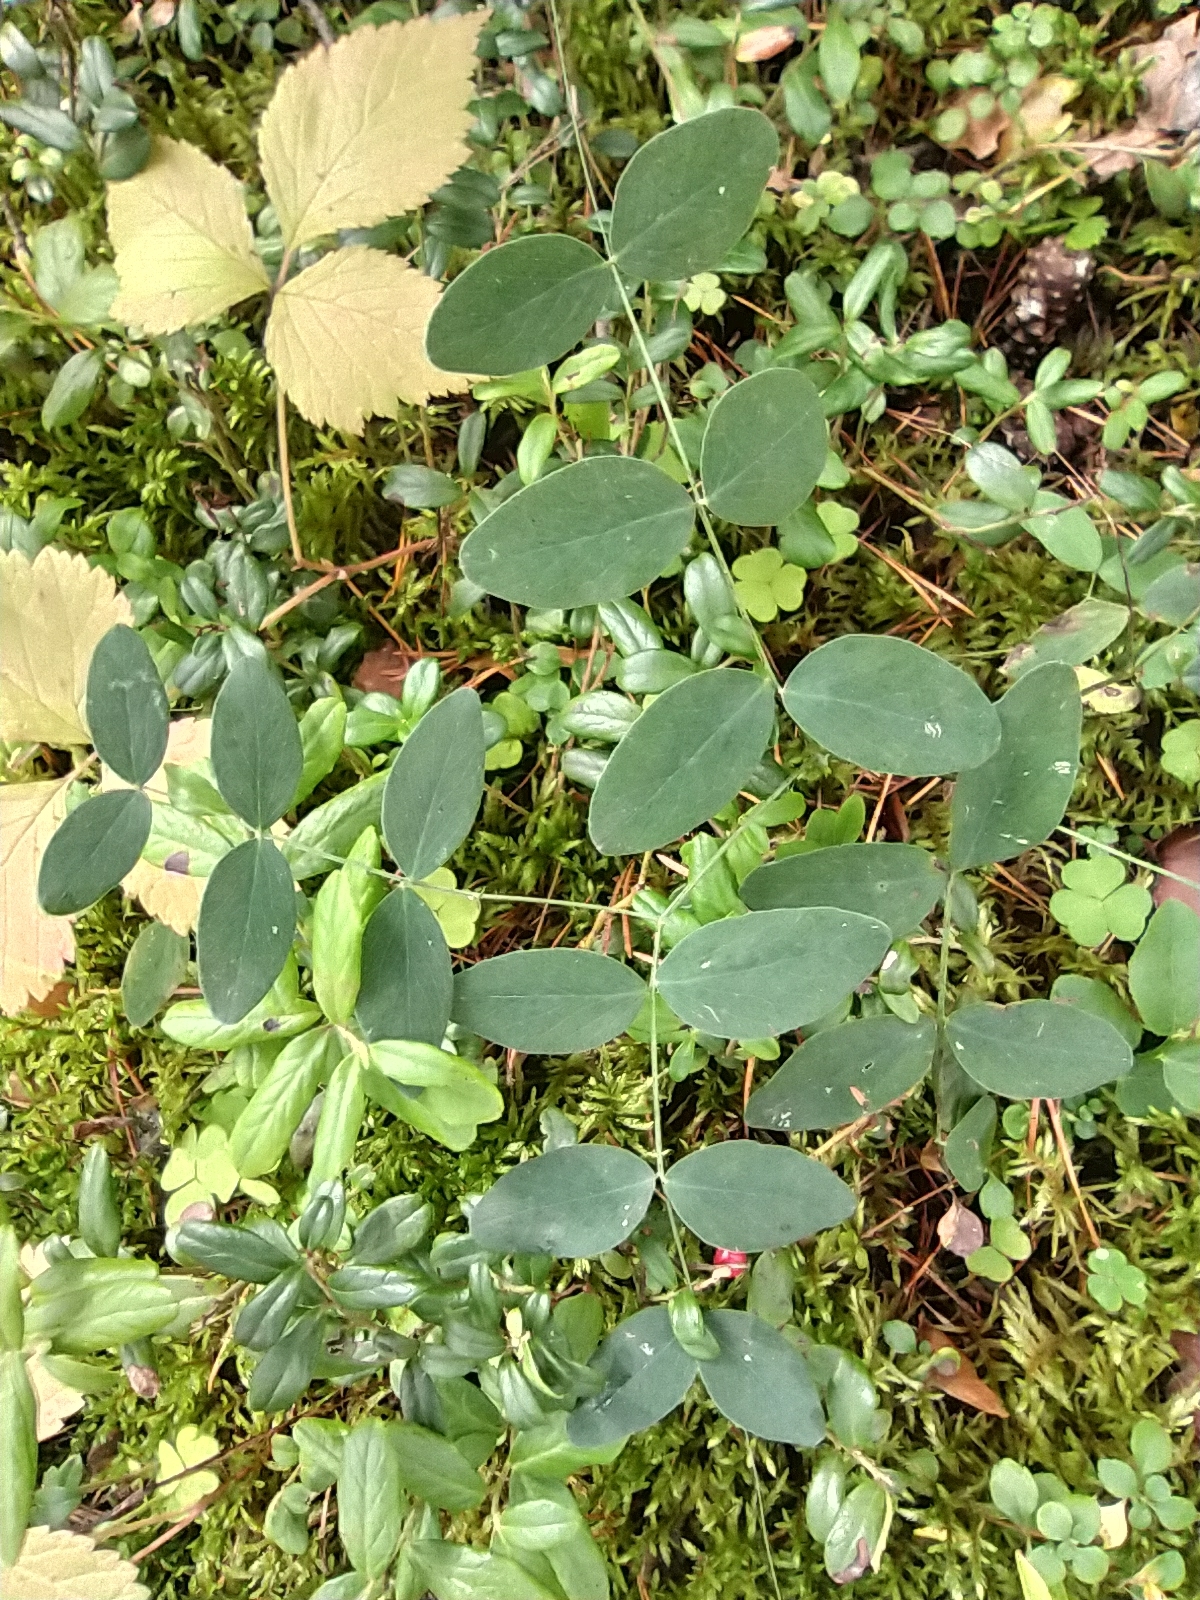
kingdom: Plantae
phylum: Tracheophyta
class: Magnoliopsida
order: Fabales
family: Fabaceae
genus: Lathyrus
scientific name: Lathyrus humilis
